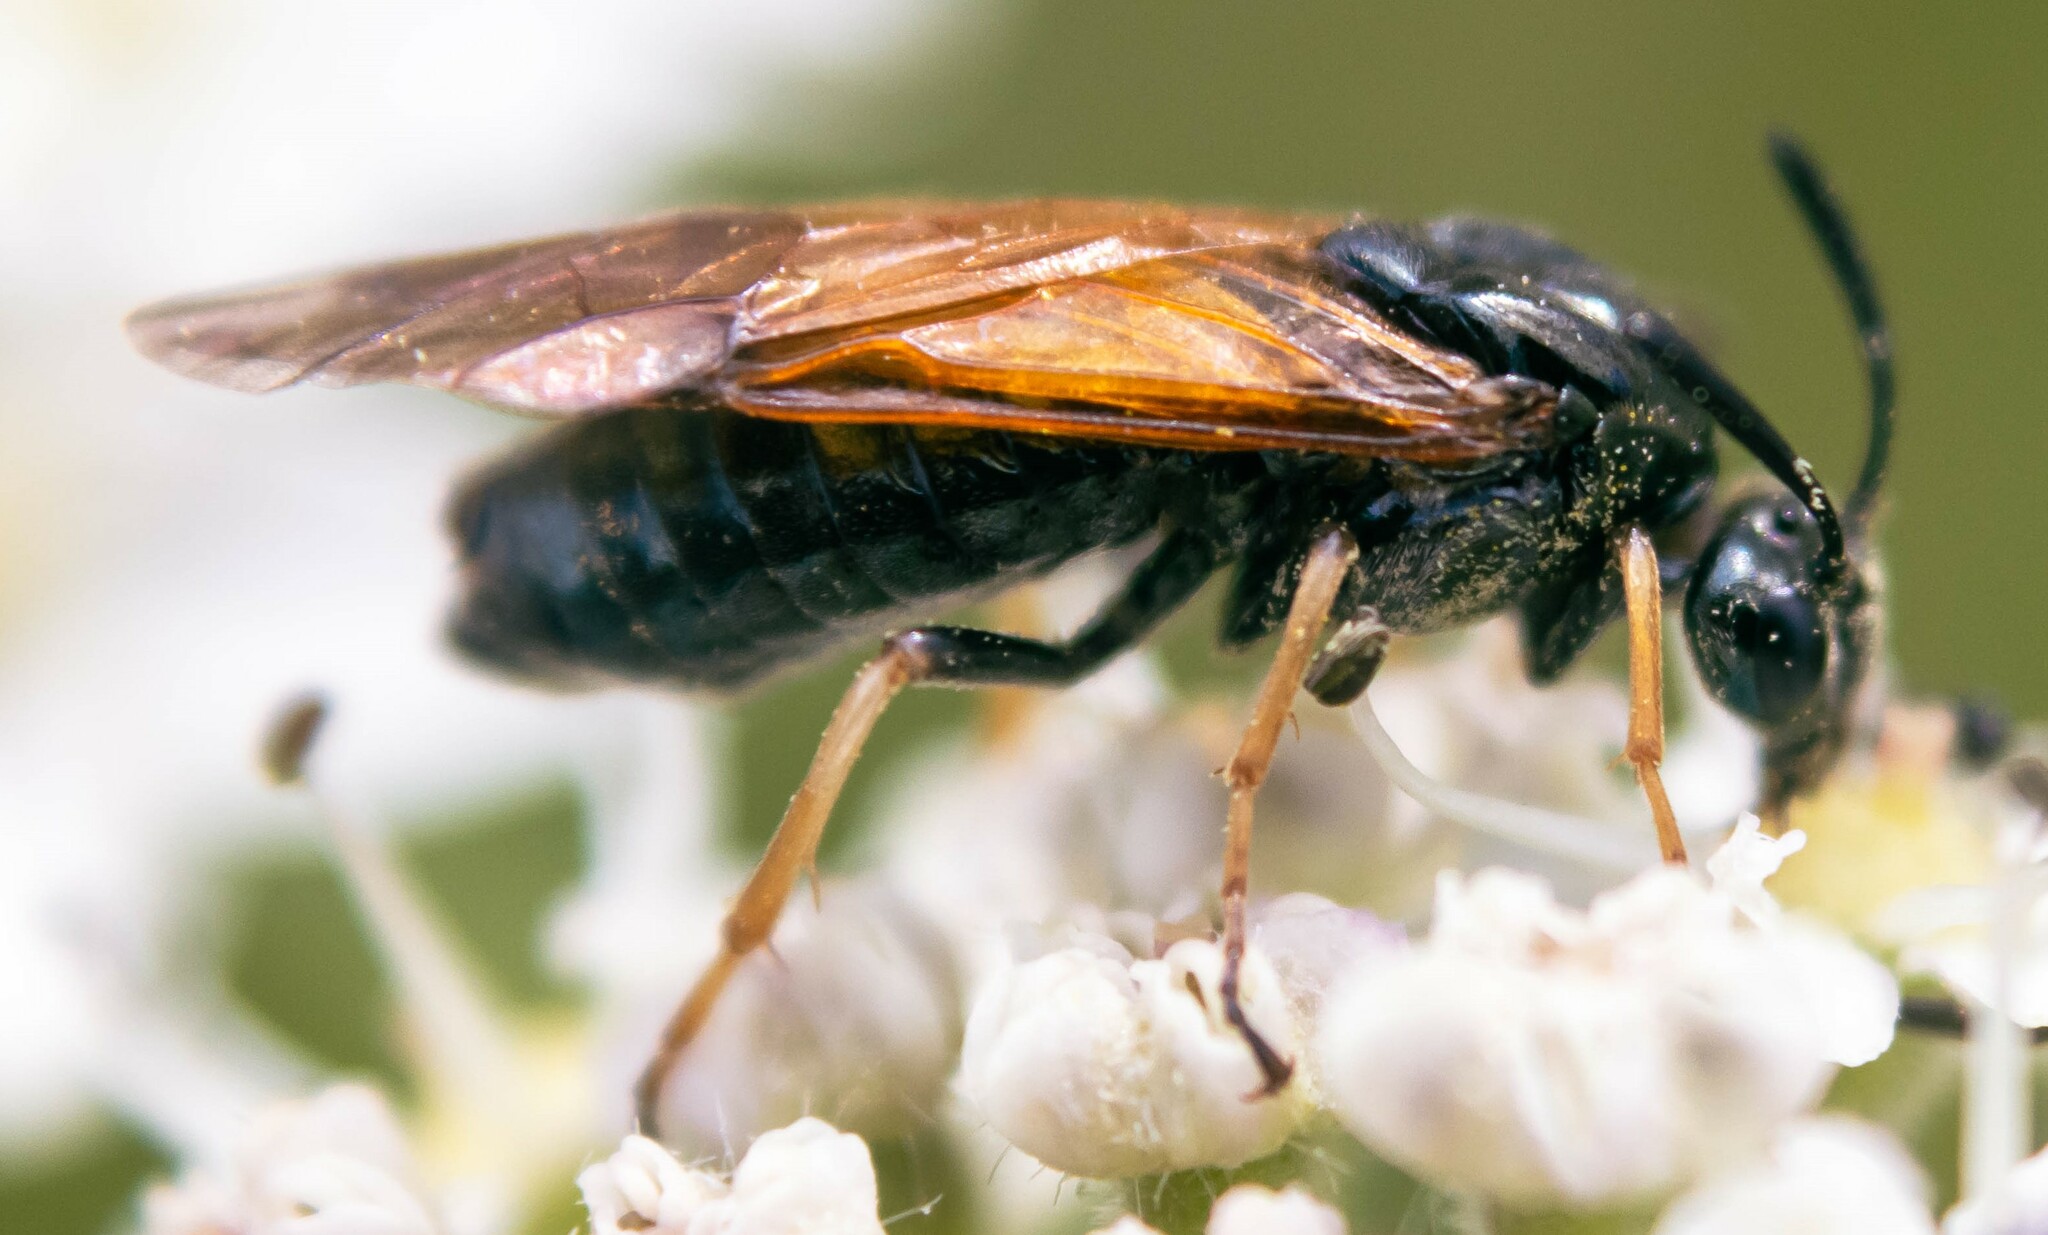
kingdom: Animalia
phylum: Arthropoda
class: Insecta
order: Hymenoptera
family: Argidae
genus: Arge
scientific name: Arge ustulata
